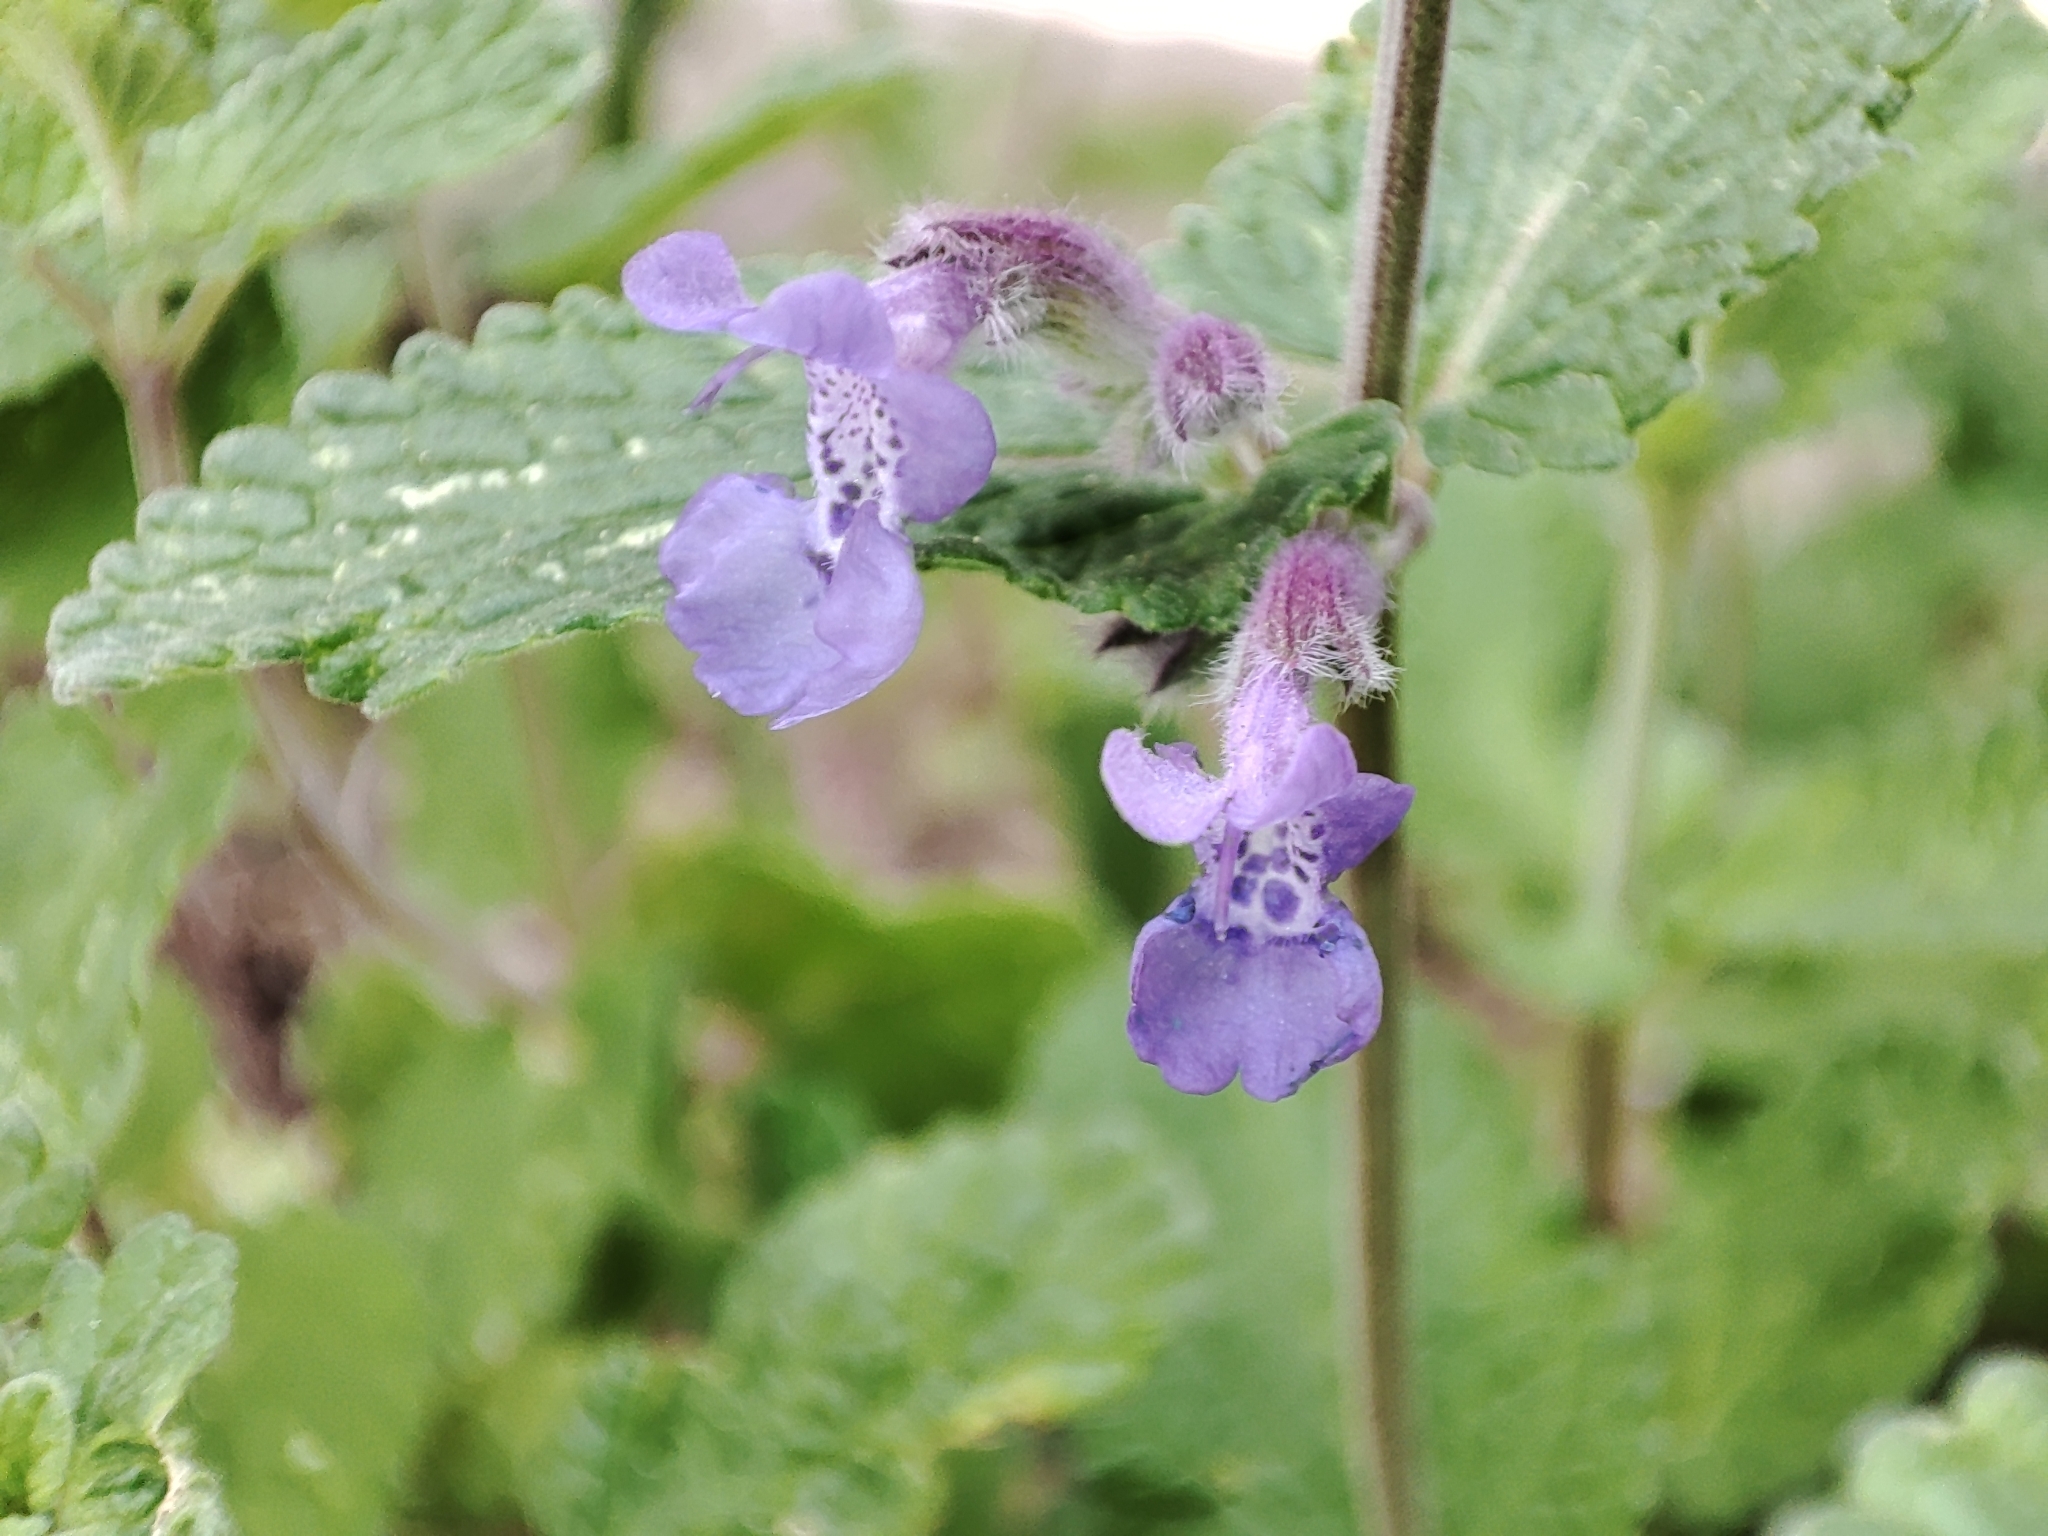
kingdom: Plantae
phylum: Tracheophyta
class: Magnoliopsida
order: Lamiales
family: Lamiaceae
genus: Nepeta
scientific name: Nepeta racemosa
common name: Raceme catnip
